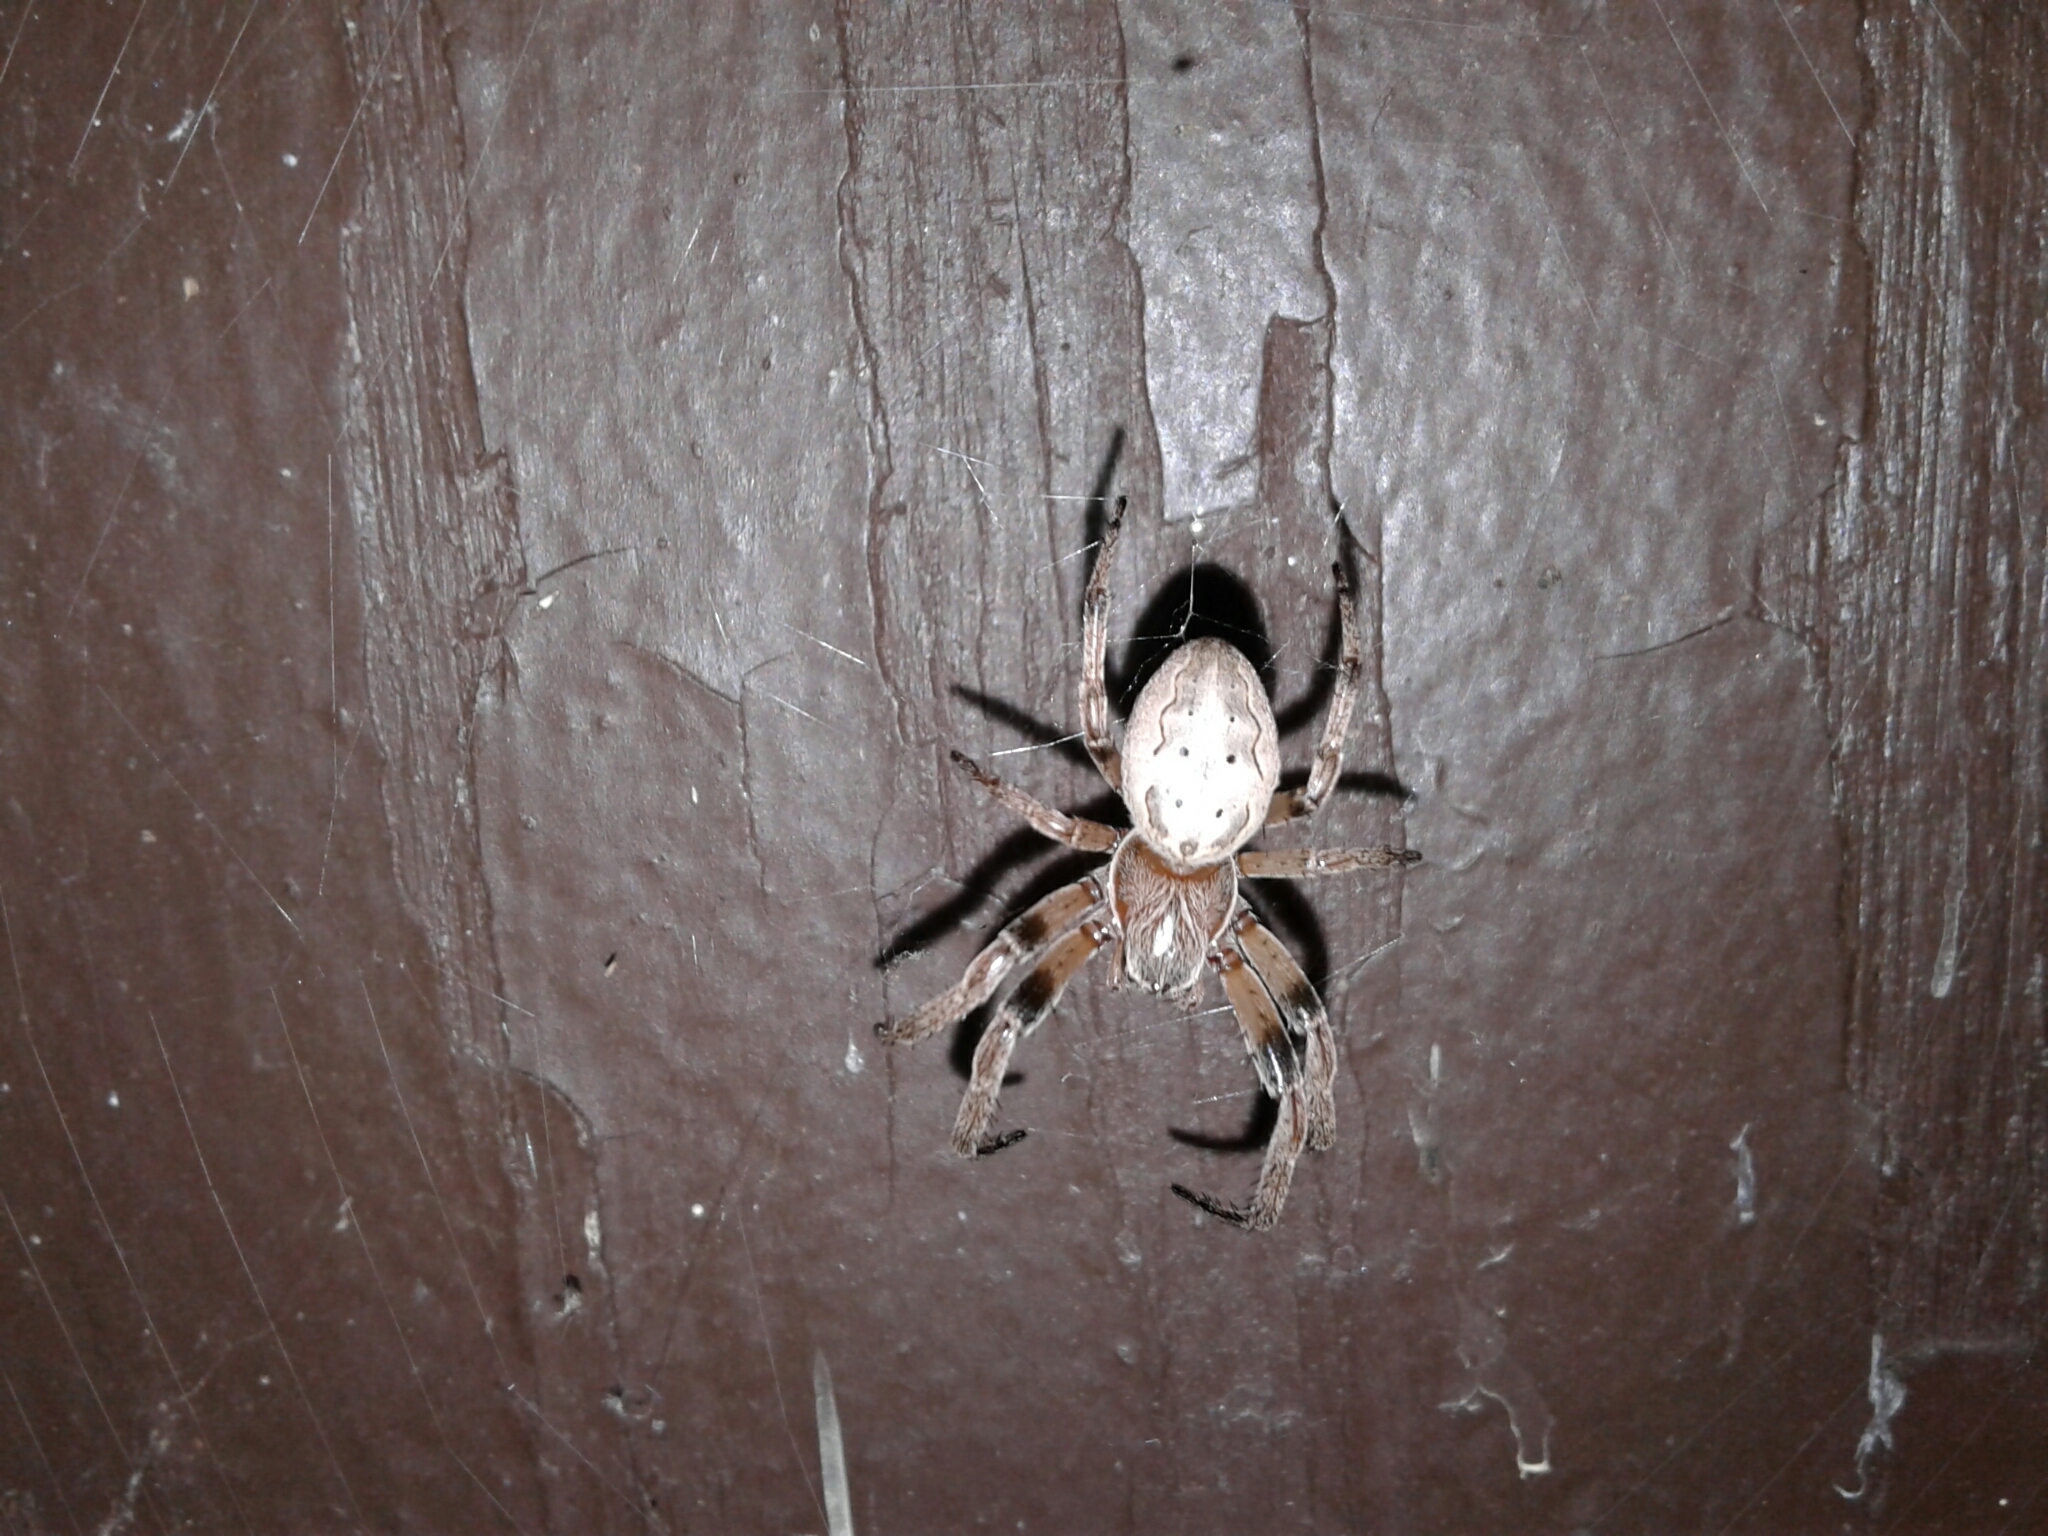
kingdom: Animalia
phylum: Arthropoda
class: Arachnida
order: Araneae
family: Araneidae
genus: Larinioides
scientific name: Larinioides cornutus
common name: Furrow orbweaver
